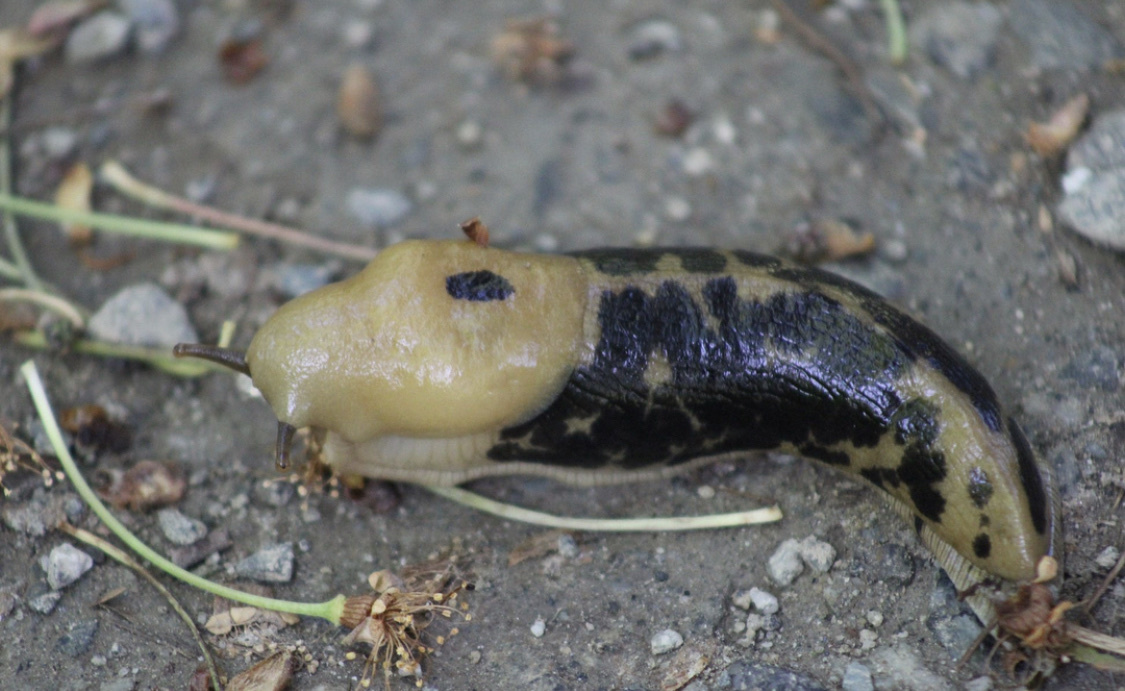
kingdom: Animalia
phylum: Mollusca
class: Gastropoda
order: Stylommatophora
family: Ariolimacidae
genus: Ariolimax
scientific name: Ariolimax columbianus
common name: Pacific banana slug
